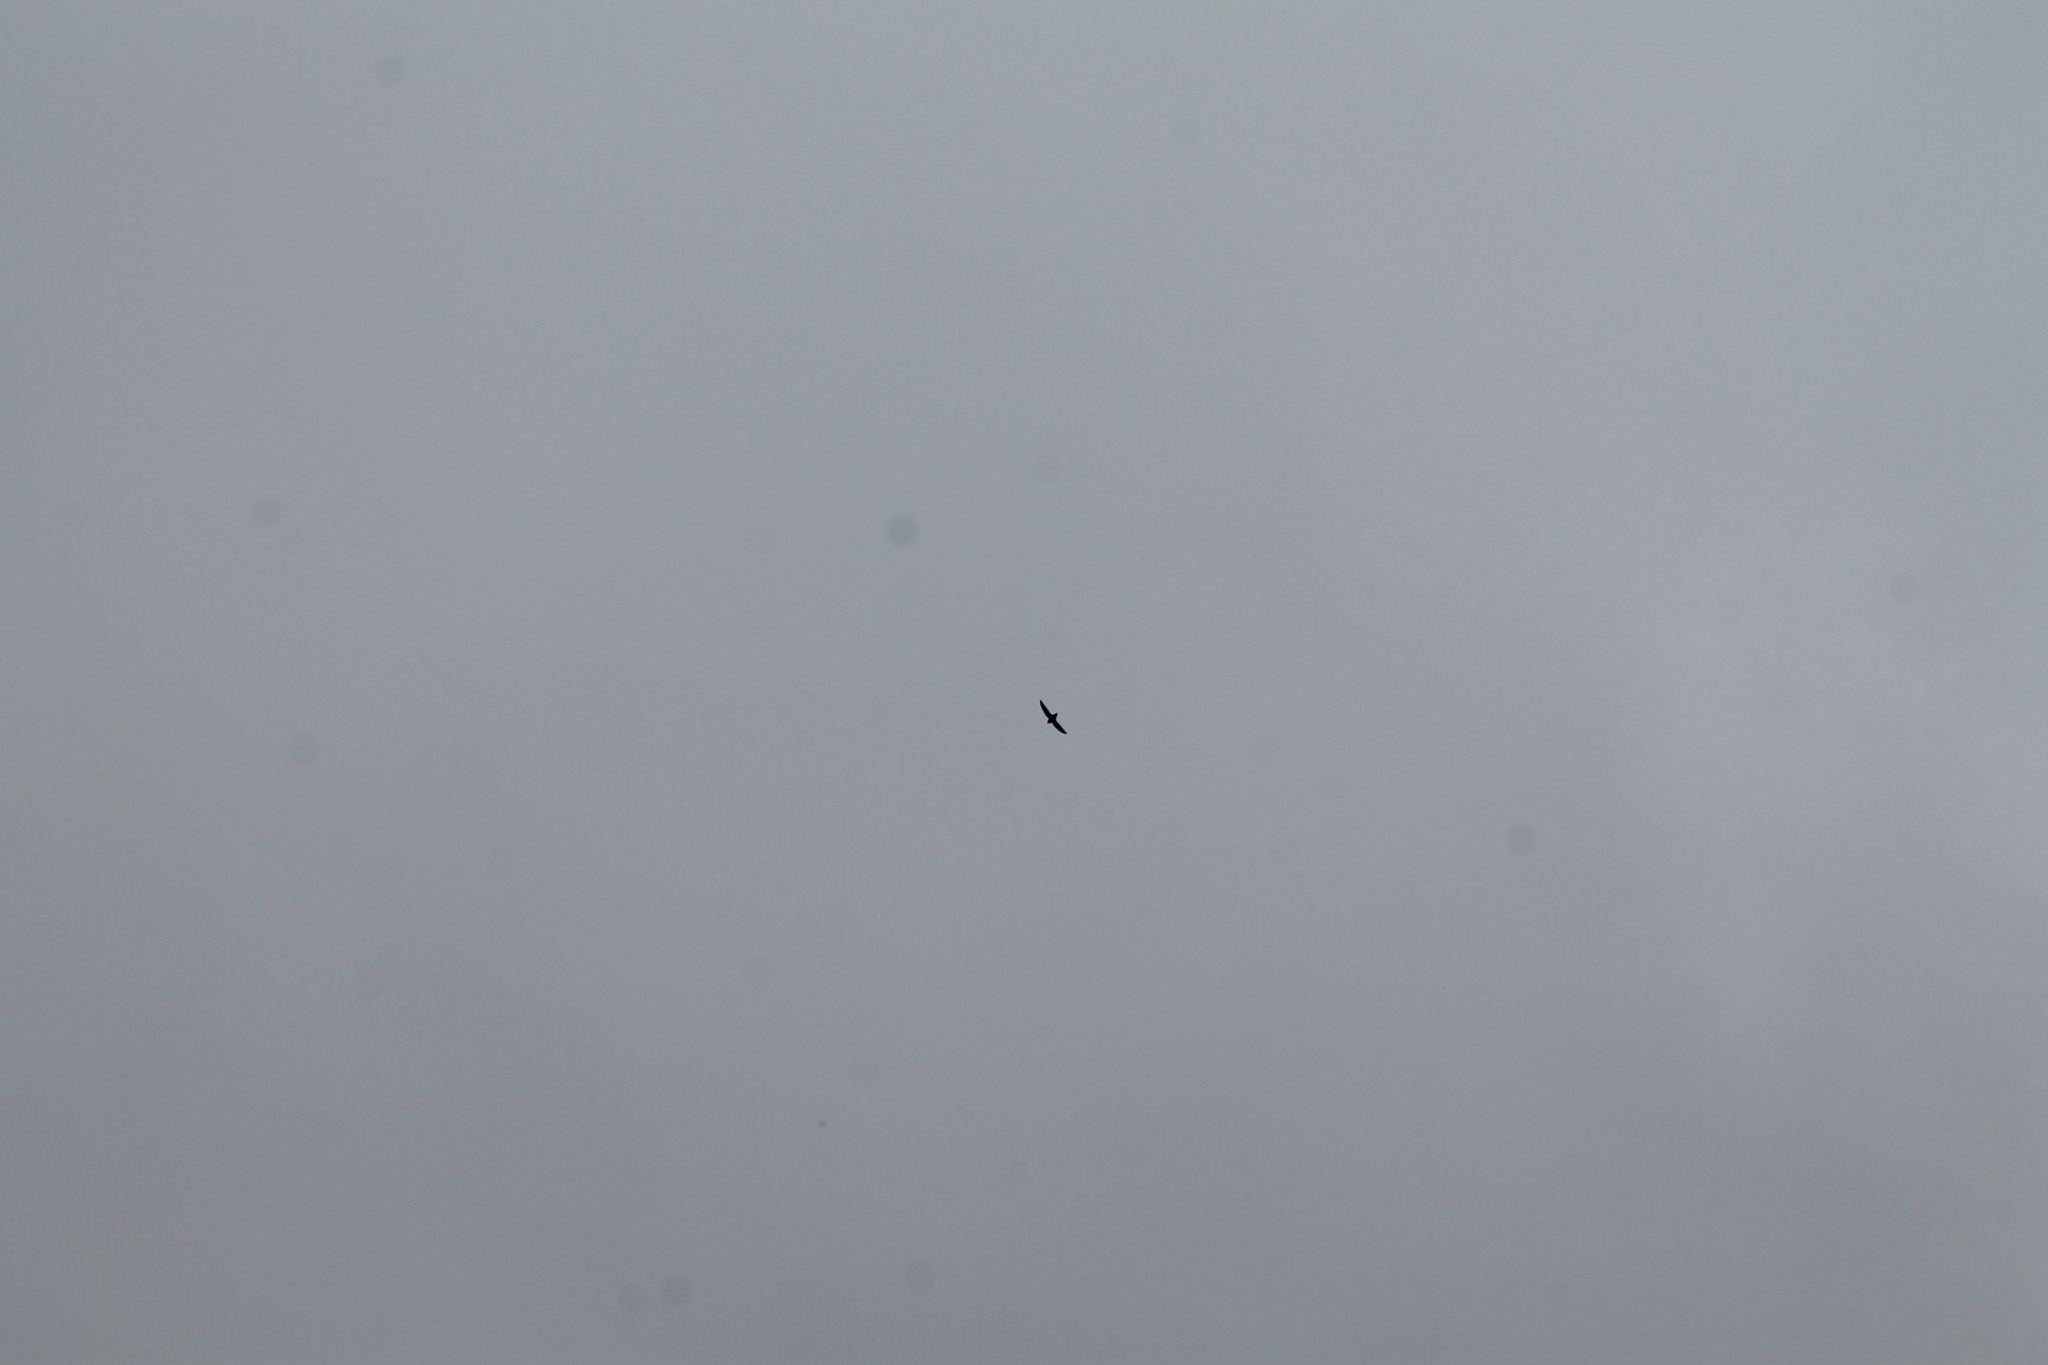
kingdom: Animalia
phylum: Chordata
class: Aves
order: Apodiformes
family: Apodidae
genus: Chaetura
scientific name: Chaetura pelagica
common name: Chimney swift
